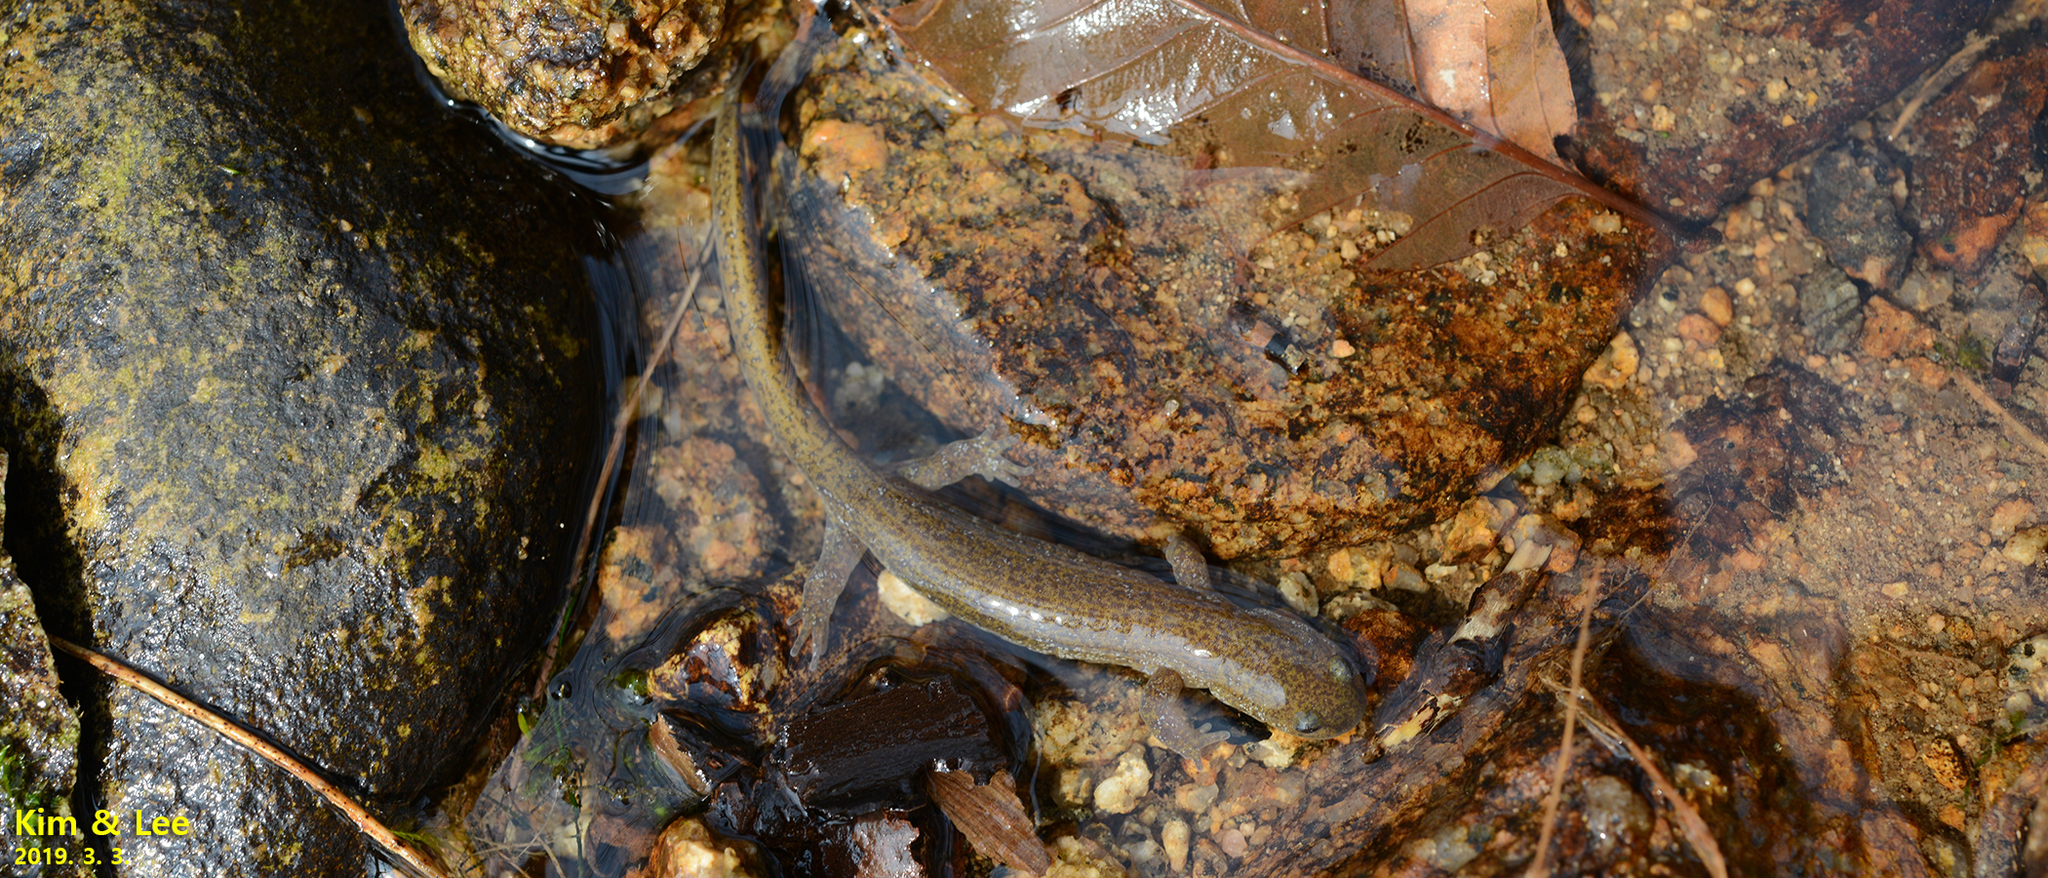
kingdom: Animalia
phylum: Chordata
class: Amphibia
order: Caudata
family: Hynobiidae
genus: Hynobius
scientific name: Hynobius quelpaertensis
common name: Cheju salamander
